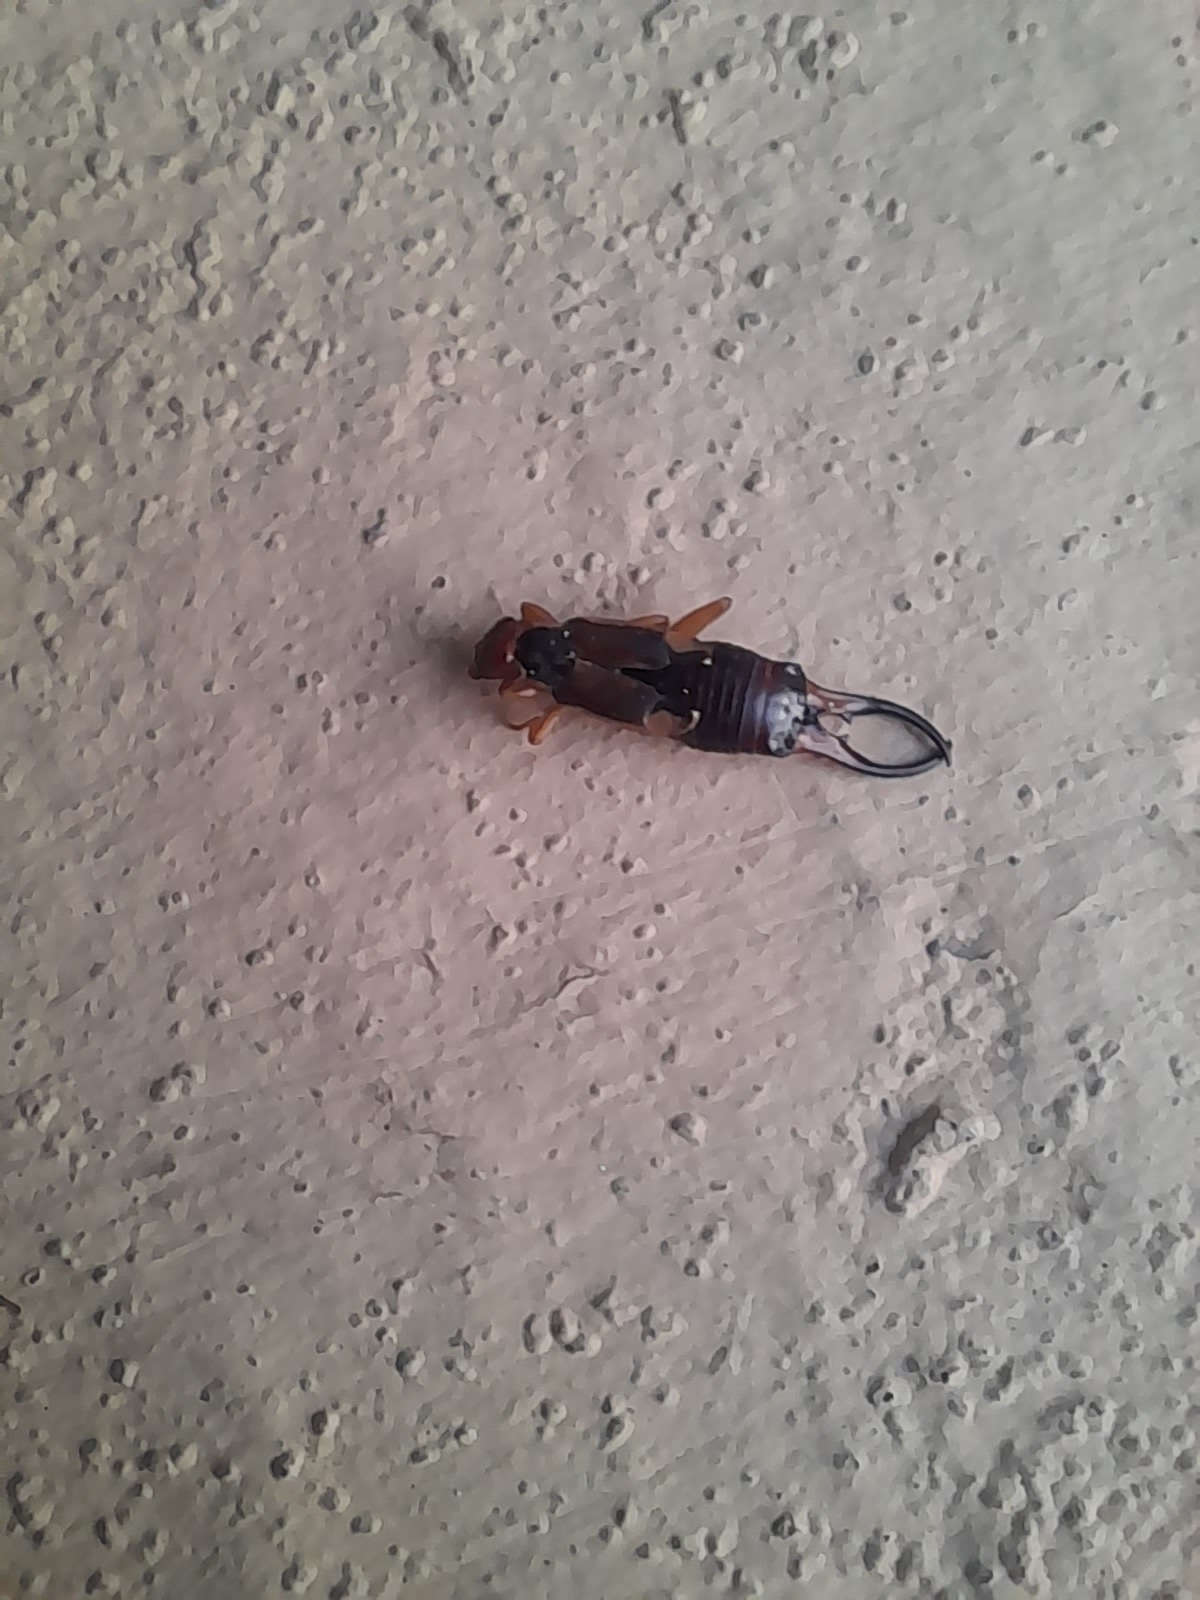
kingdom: Animalia
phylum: Arthropoda
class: Insecta
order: Dermaptera
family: Forficulidae
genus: Forficula
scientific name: Forficula
